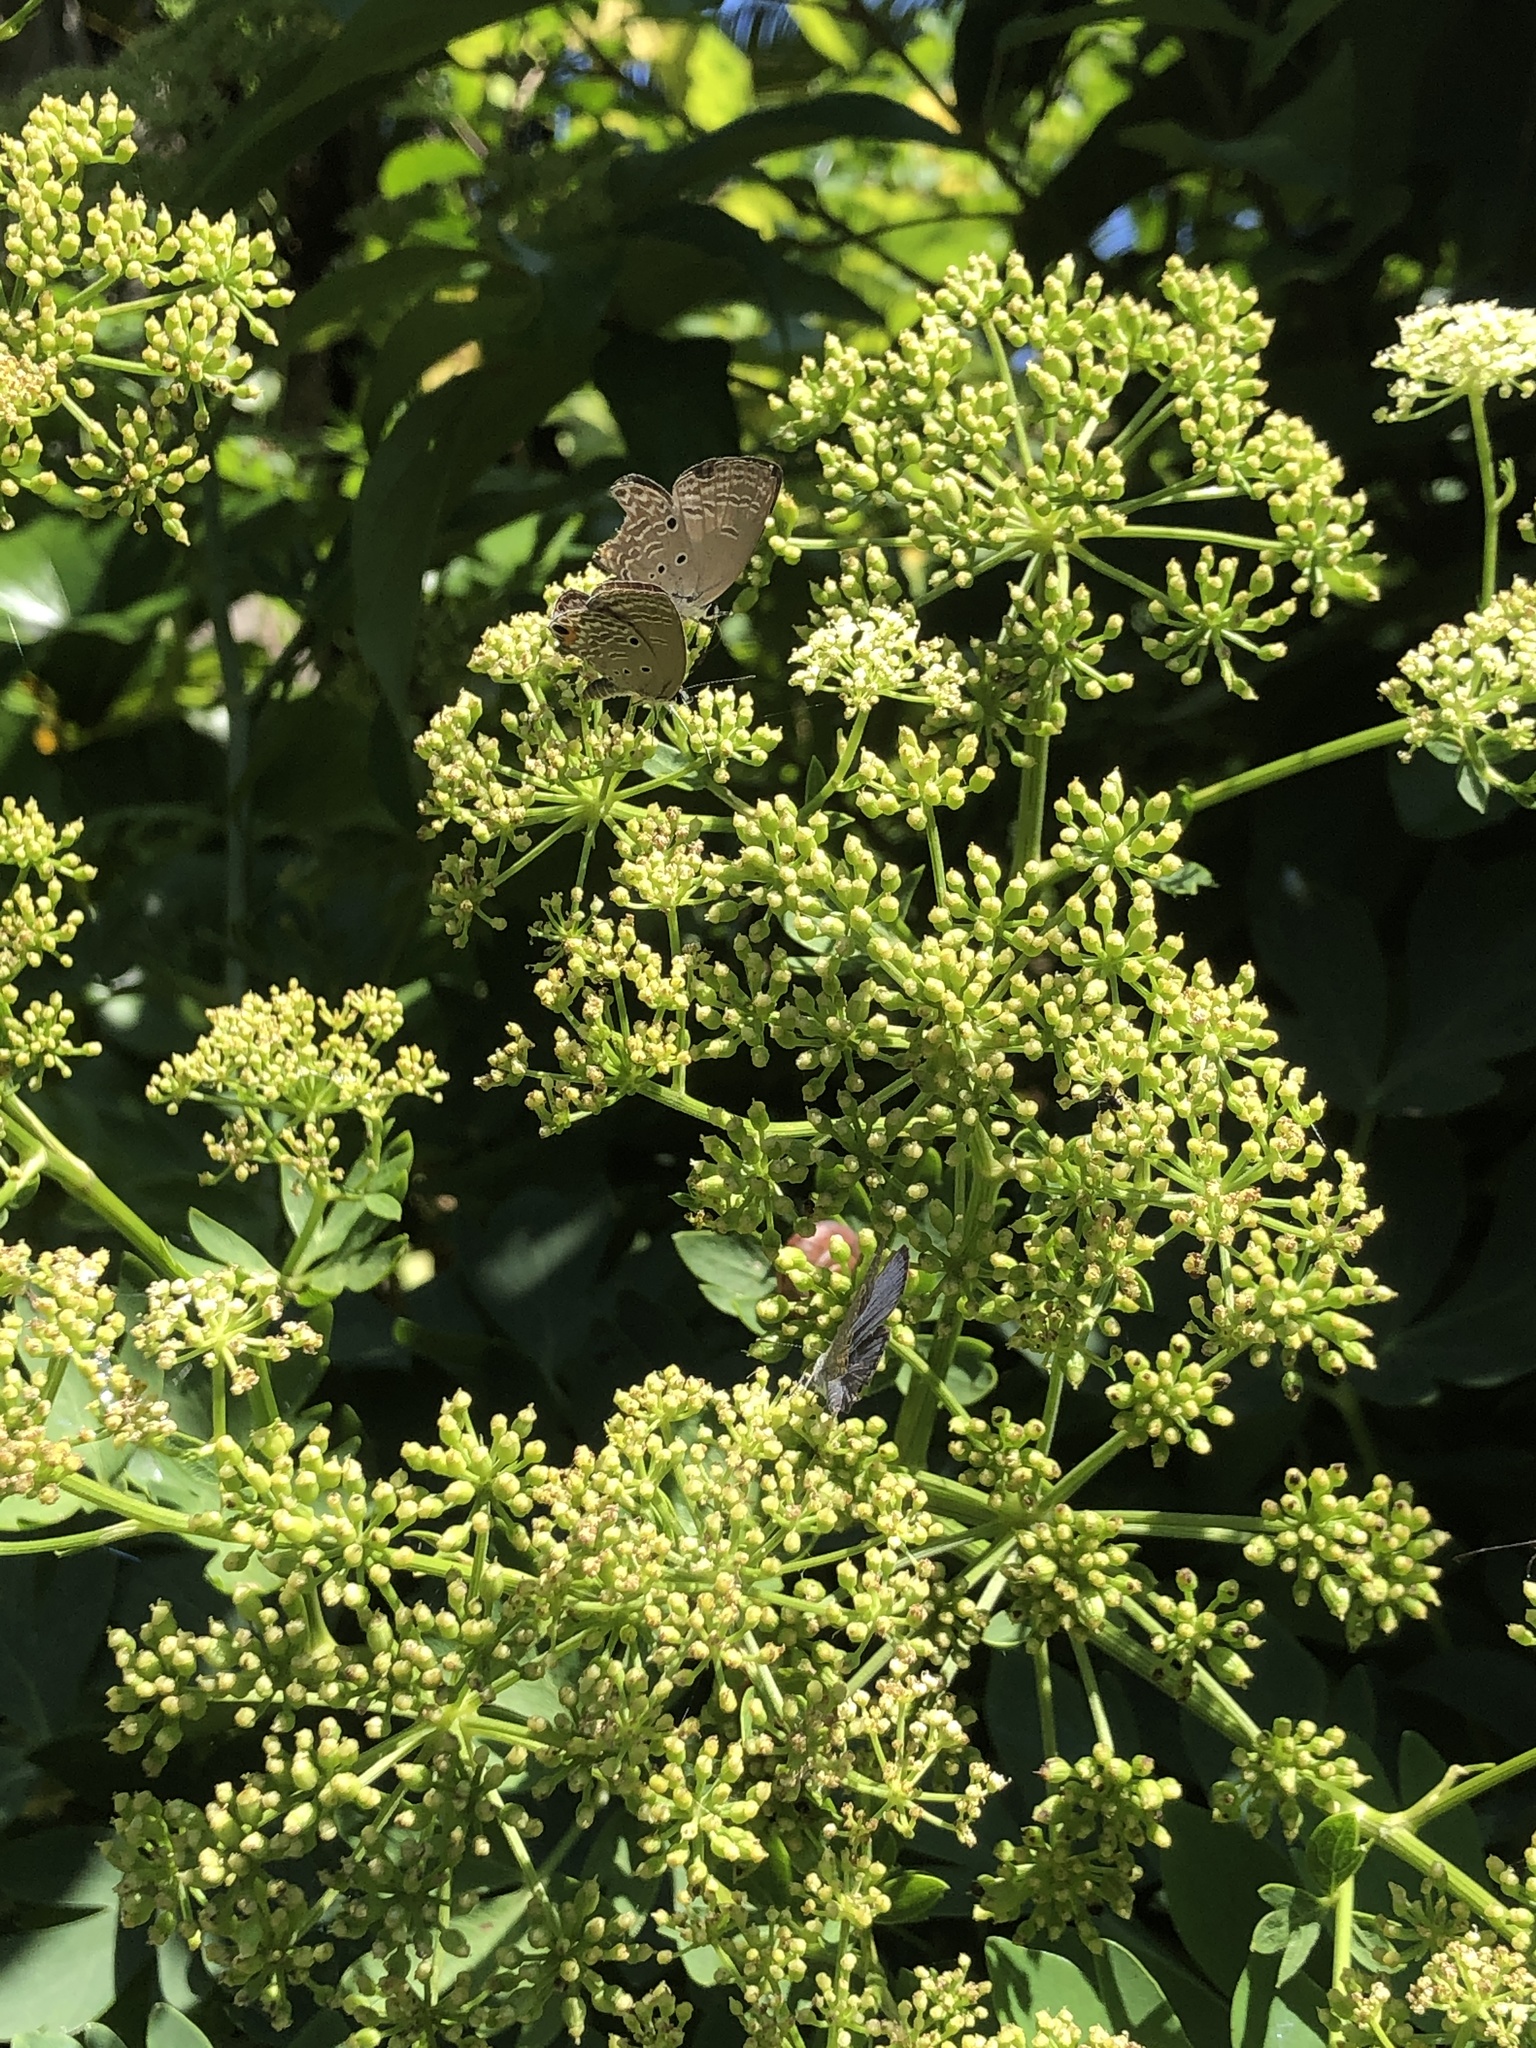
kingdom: Animalia
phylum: Arthropoda
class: Insecta
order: Lepidoptera
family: Lycaenidae
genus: Luthrodes
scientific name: Luthrodes pandava
